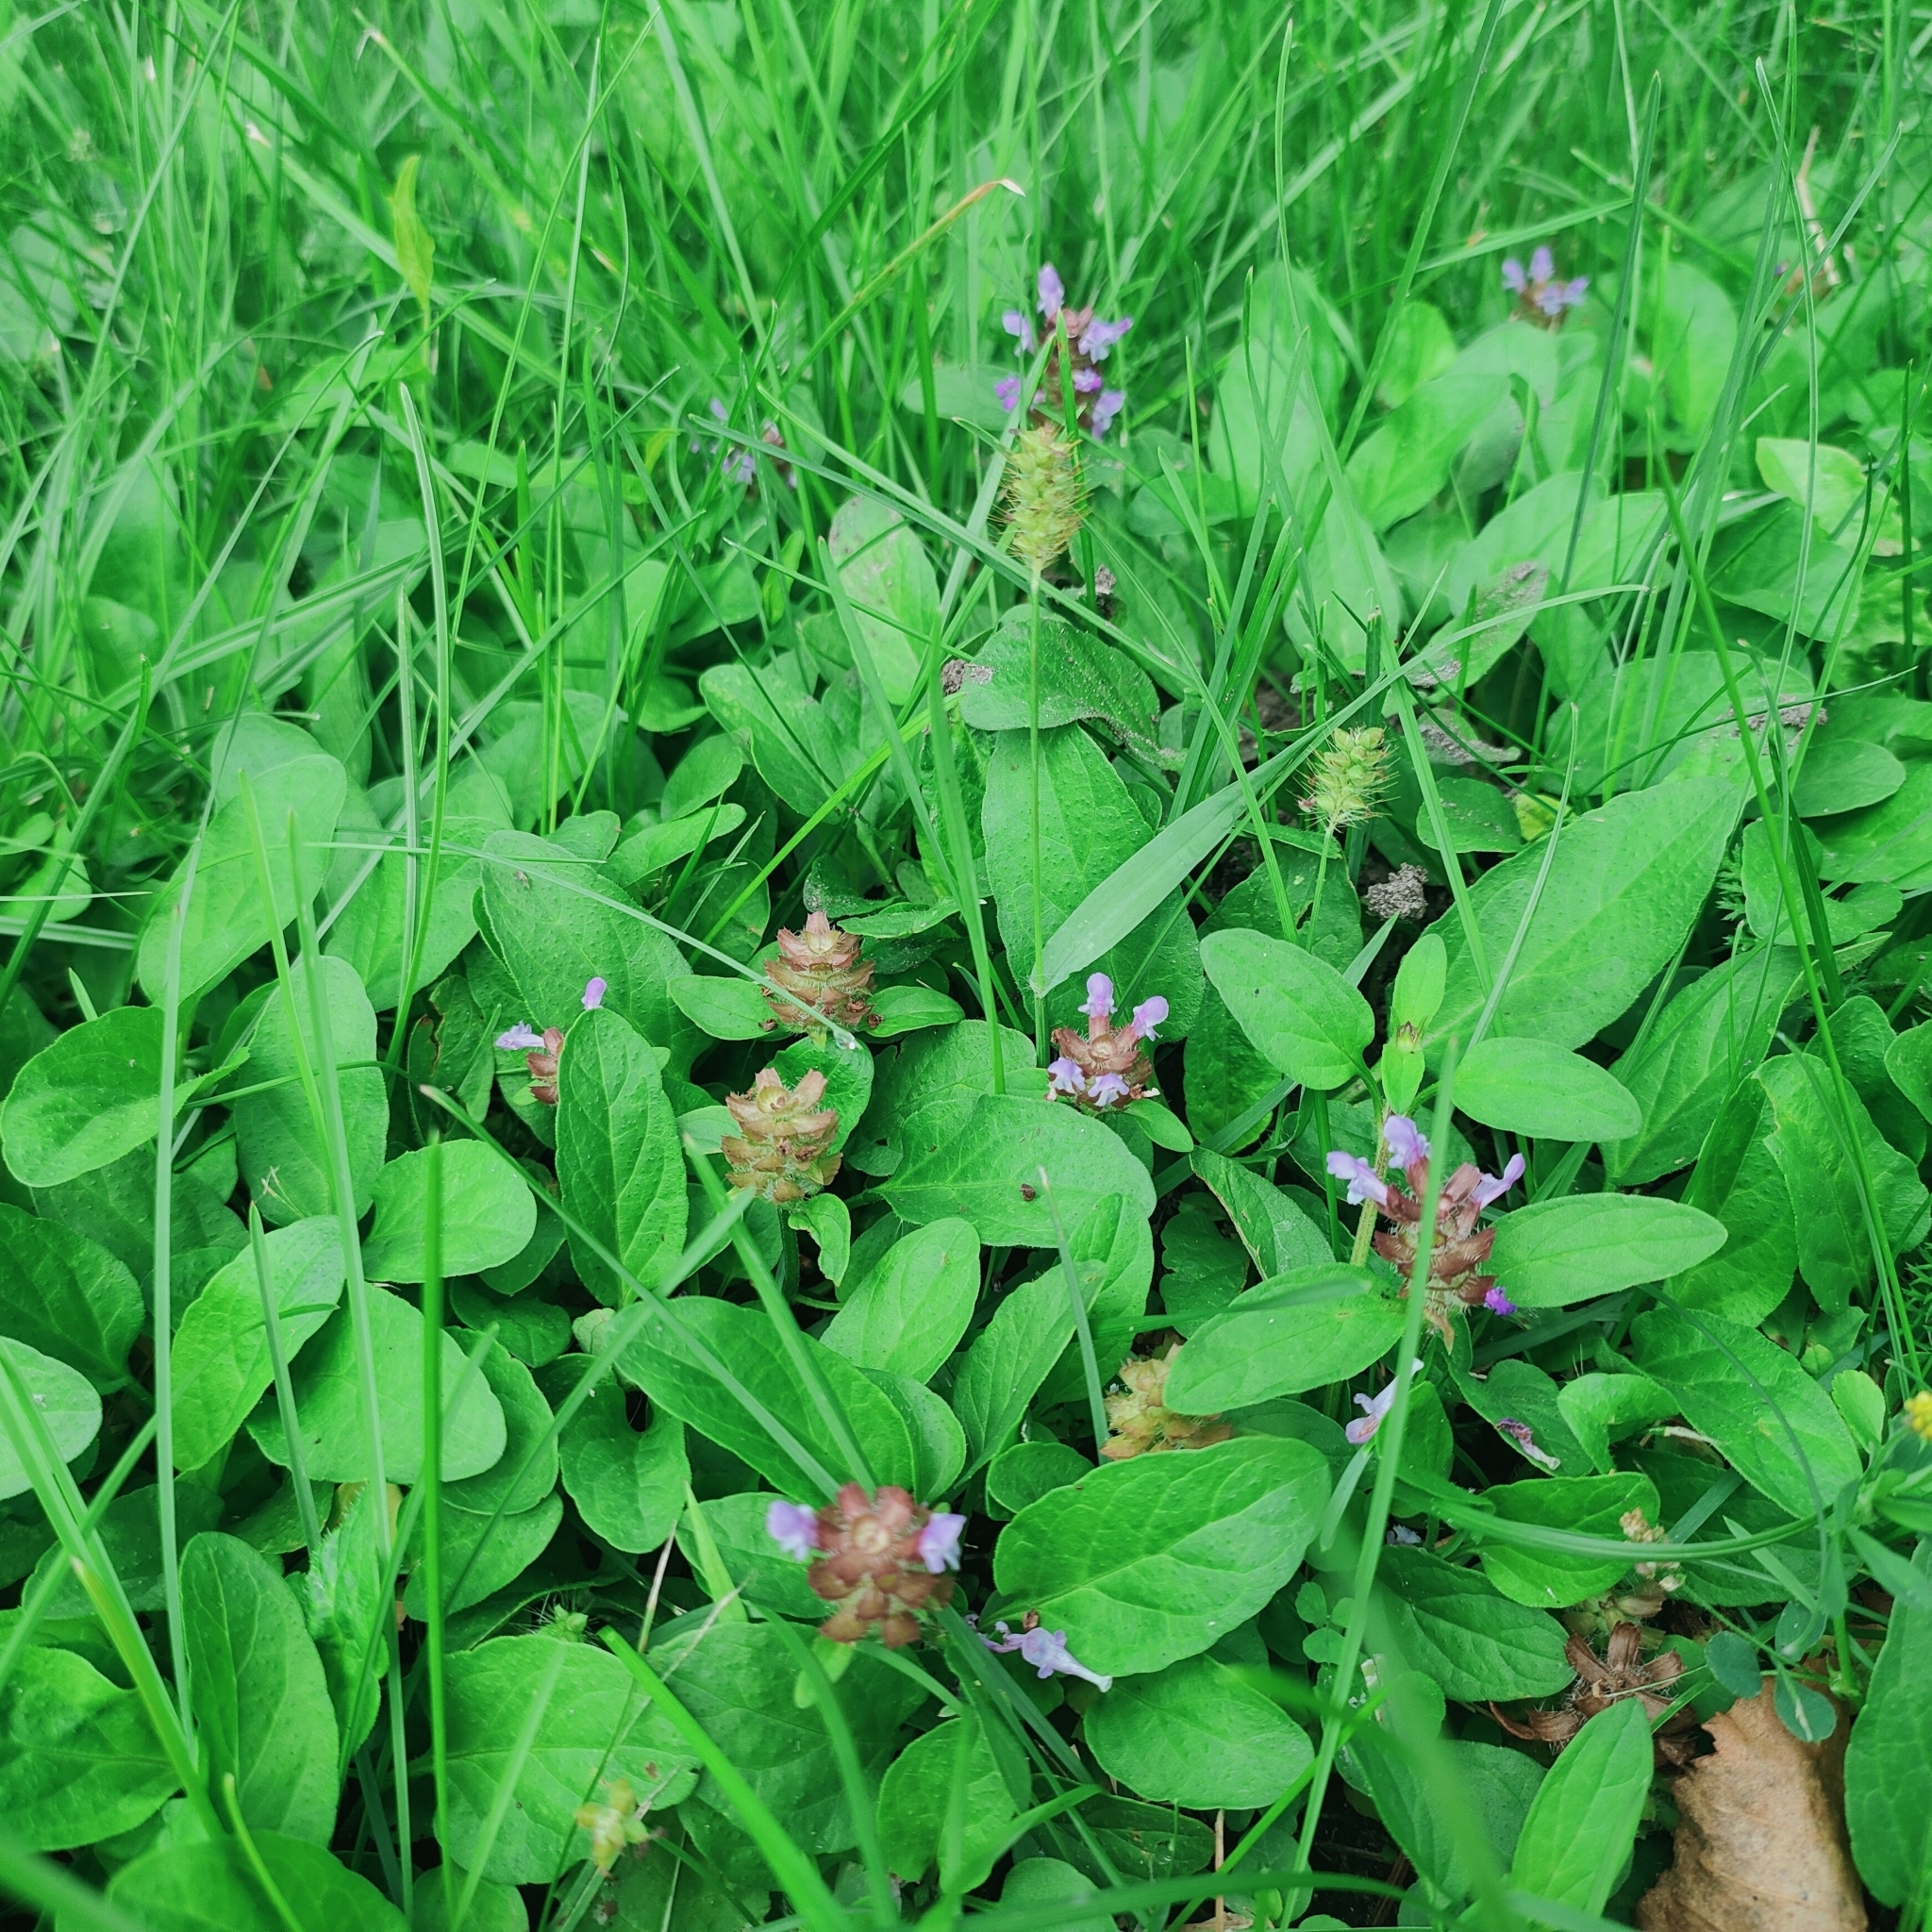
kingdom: Plantae
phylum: Tracheophyta
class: Magnoliopsida
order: Lamiales
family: Lamiaceae
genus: Prunella
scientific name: Prunella vulgaris
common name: Heal-all
